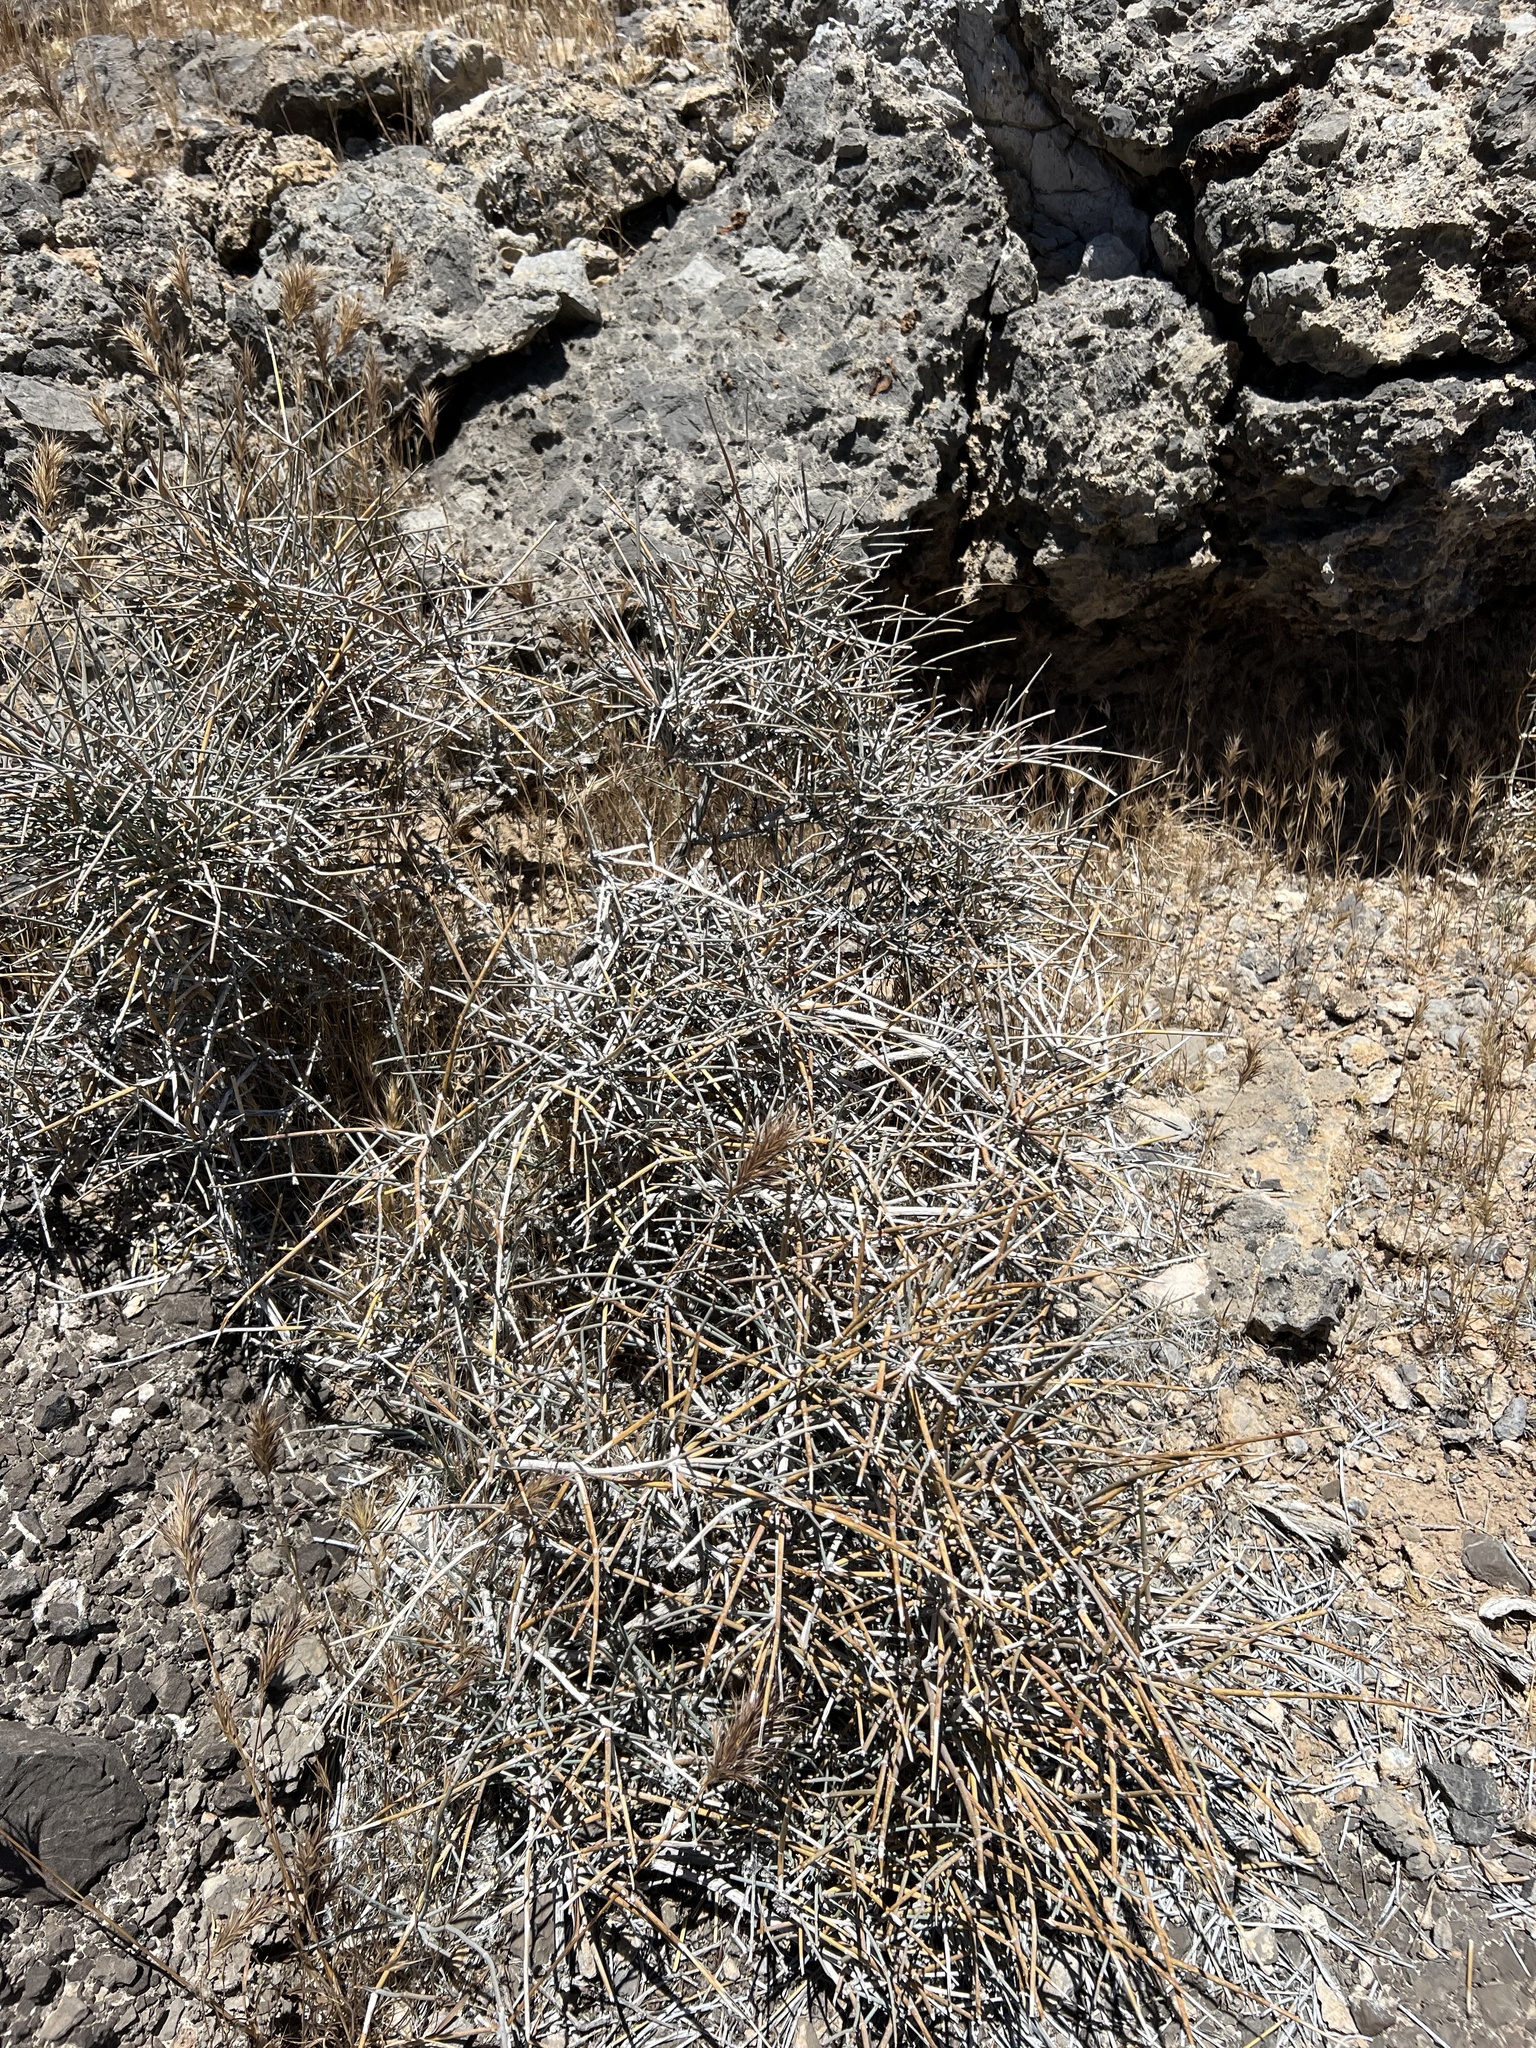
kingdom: Plantae
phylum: Tracheophyta
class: Gnetopsida
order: Ephedrales
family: Ephedraceae
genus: Ephedra
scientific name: Ephedra nevadensis
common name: Gray ephedra
